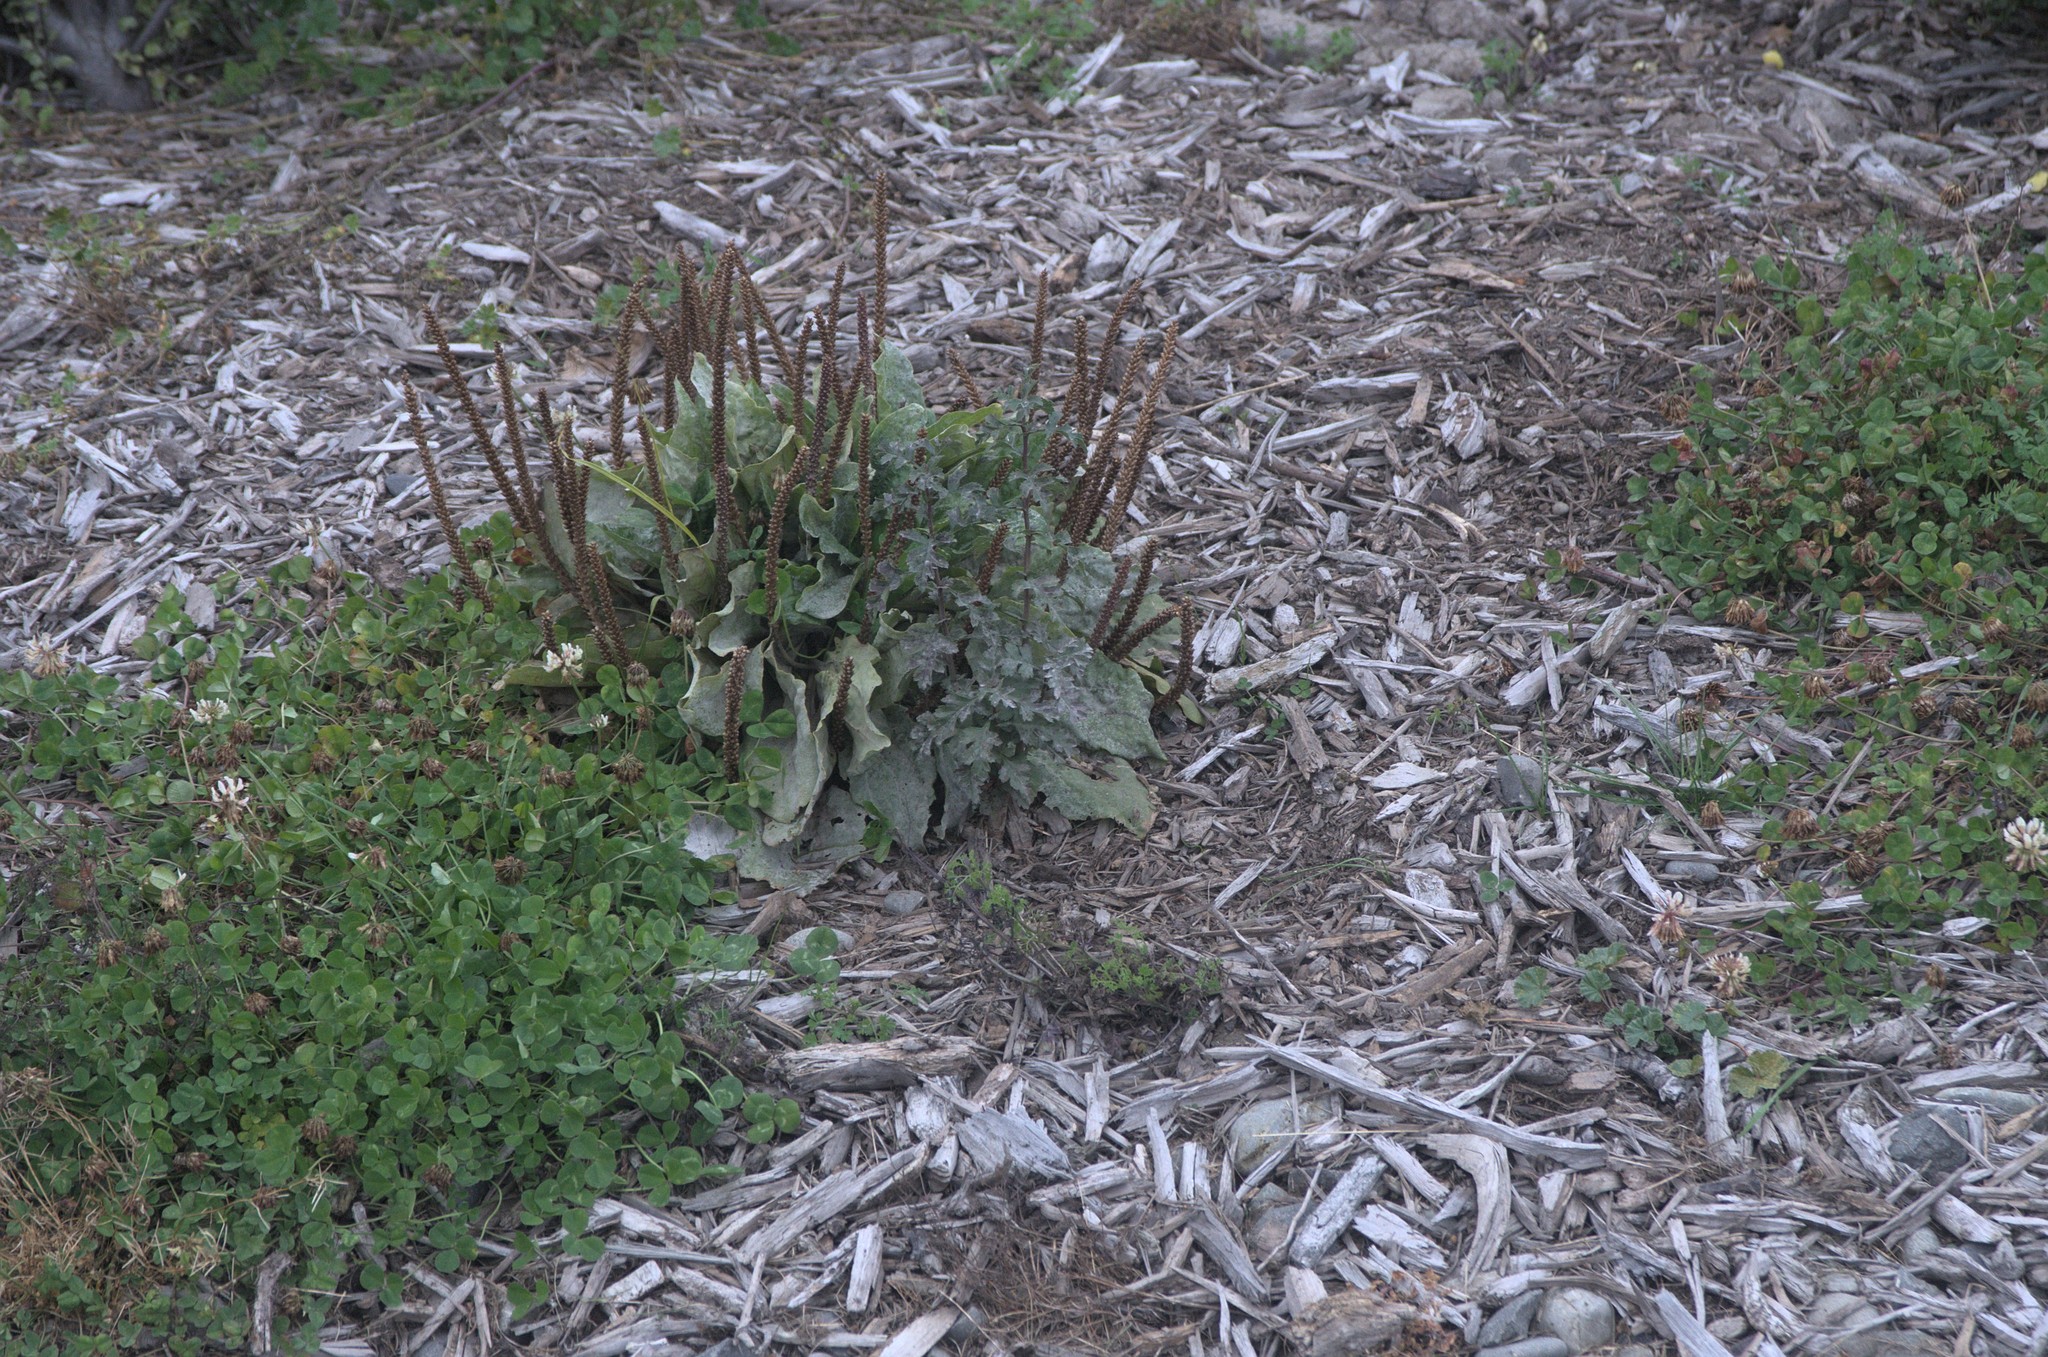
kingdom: Plantae
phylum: Tracheophyta
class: Magnoliopsida
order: Caryophyllales
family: Polygonaceae
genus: Rumex
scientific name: Rumex obtusifolius
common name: Bitter dock
